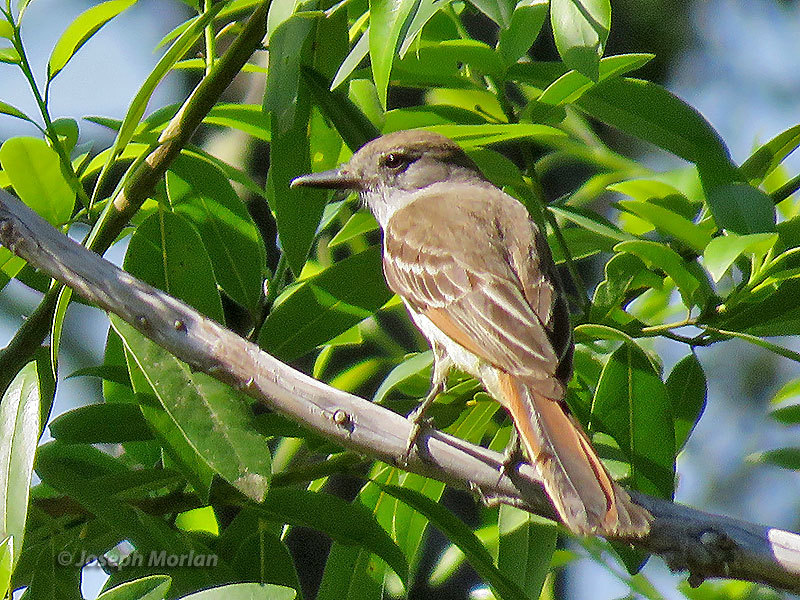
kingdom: Animalia
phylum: Chordata
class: Aves
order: Passeriformes
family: Tyrannidae
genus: Myiarchus
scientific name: Myiarchus cinerascens
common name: Ash-throated flycatcher
